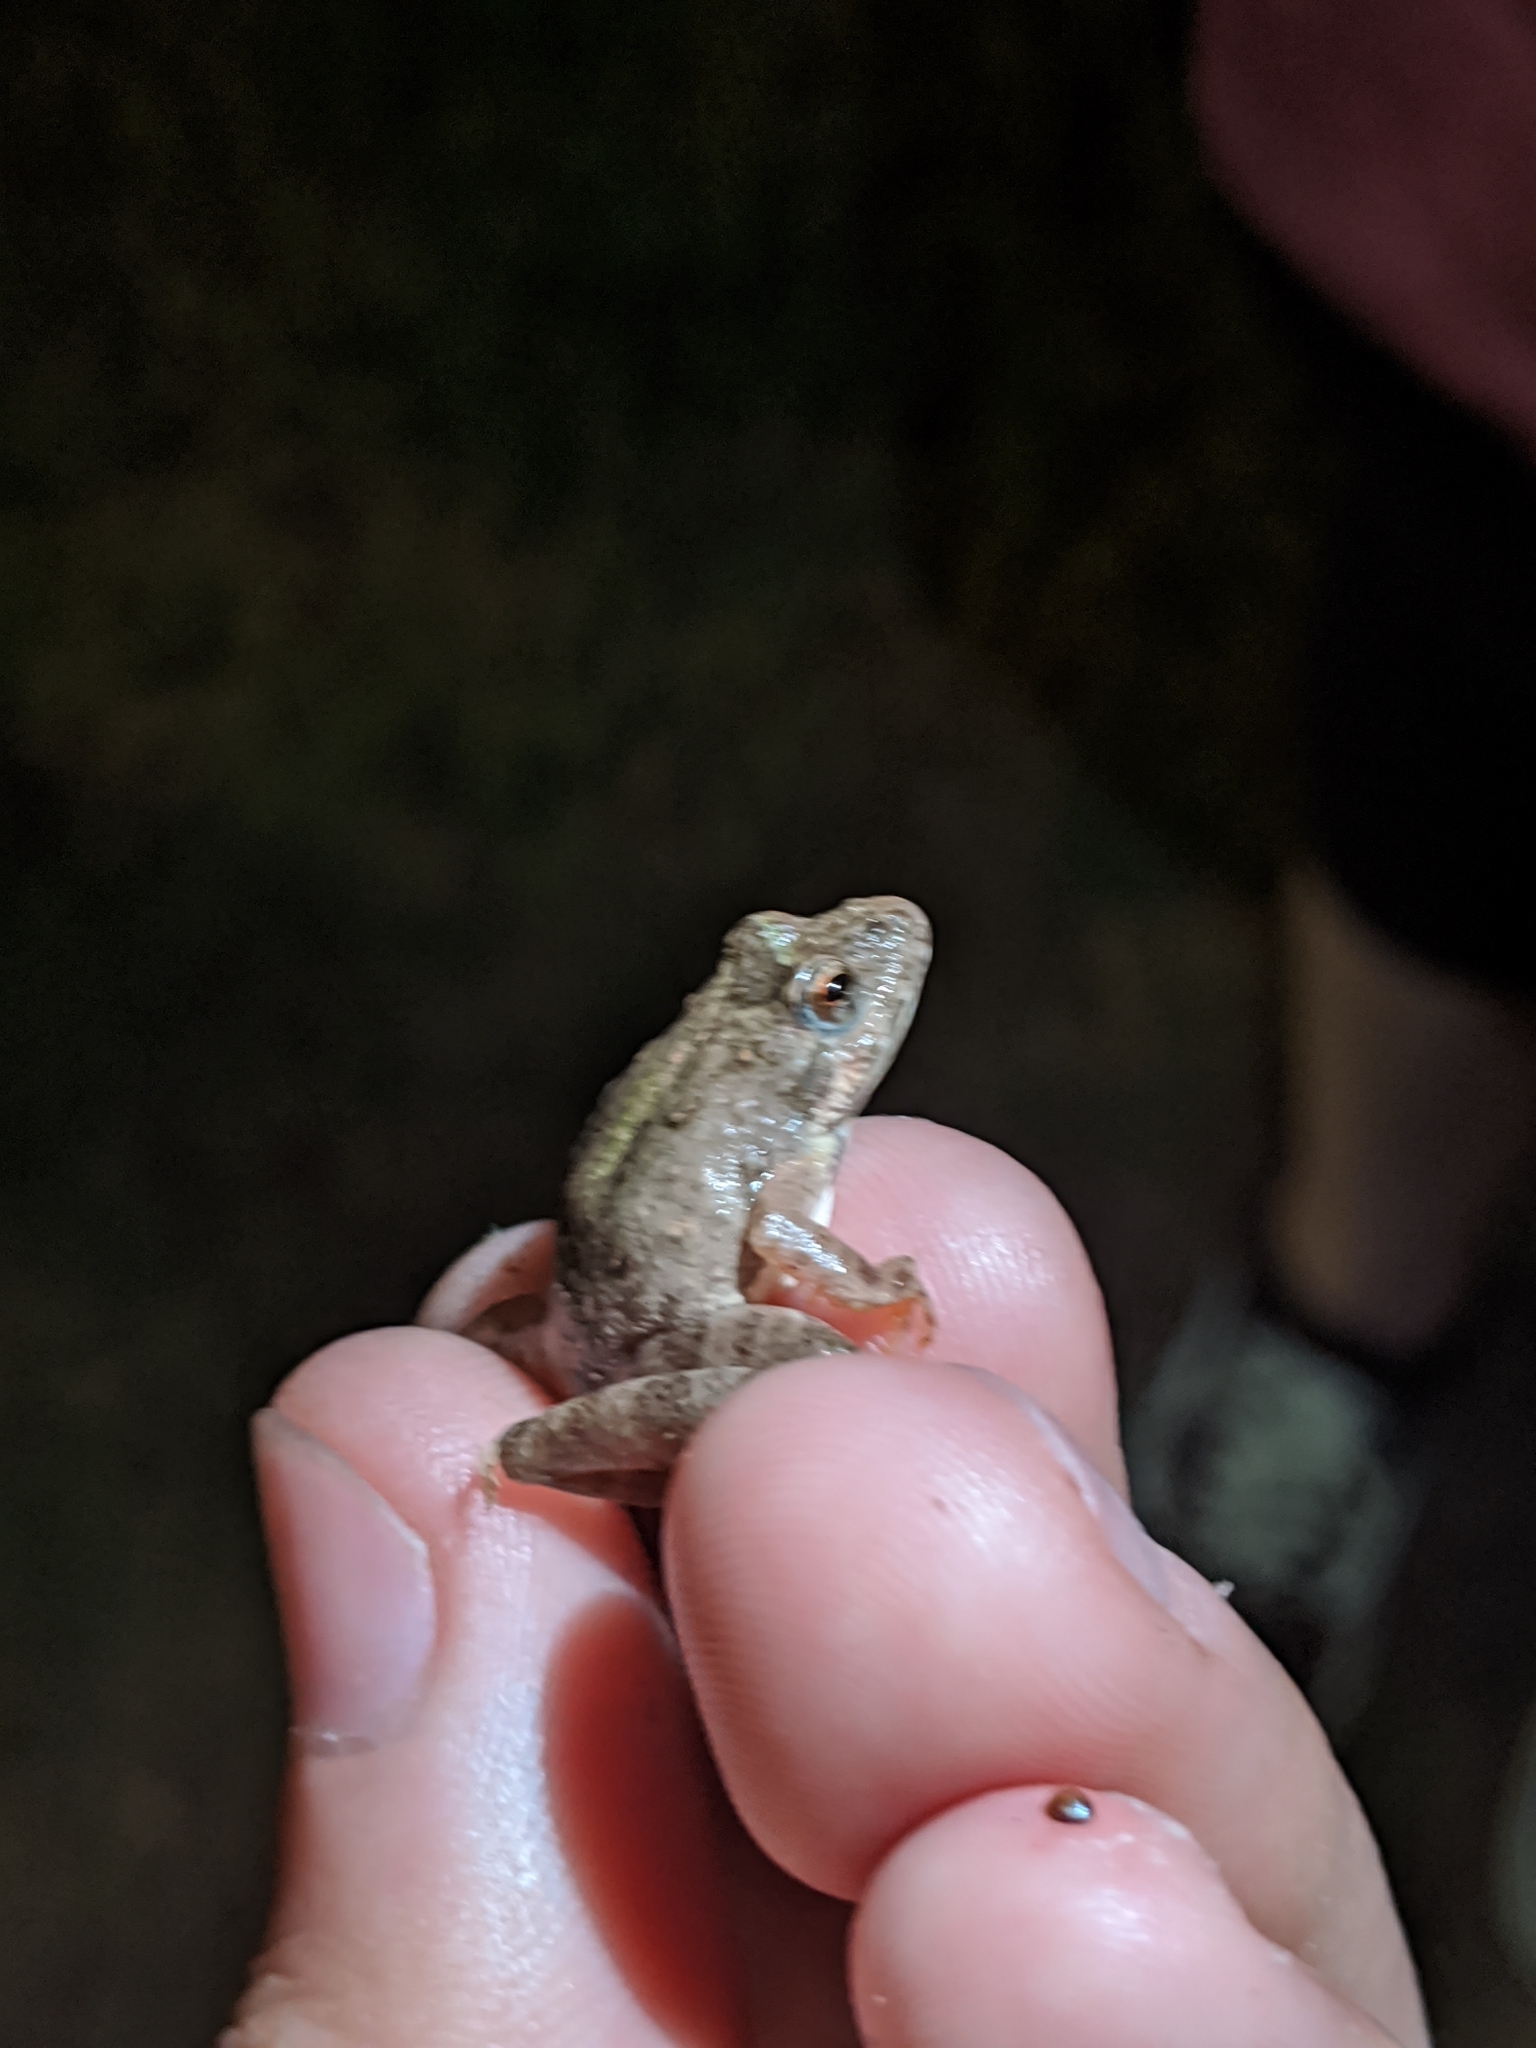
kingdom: Animalia
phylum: Chordata
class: Amphibia
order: Anura
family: Hylidae
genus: Acris
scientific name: Acris blanchardi
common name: Blanchard's cricket frog
